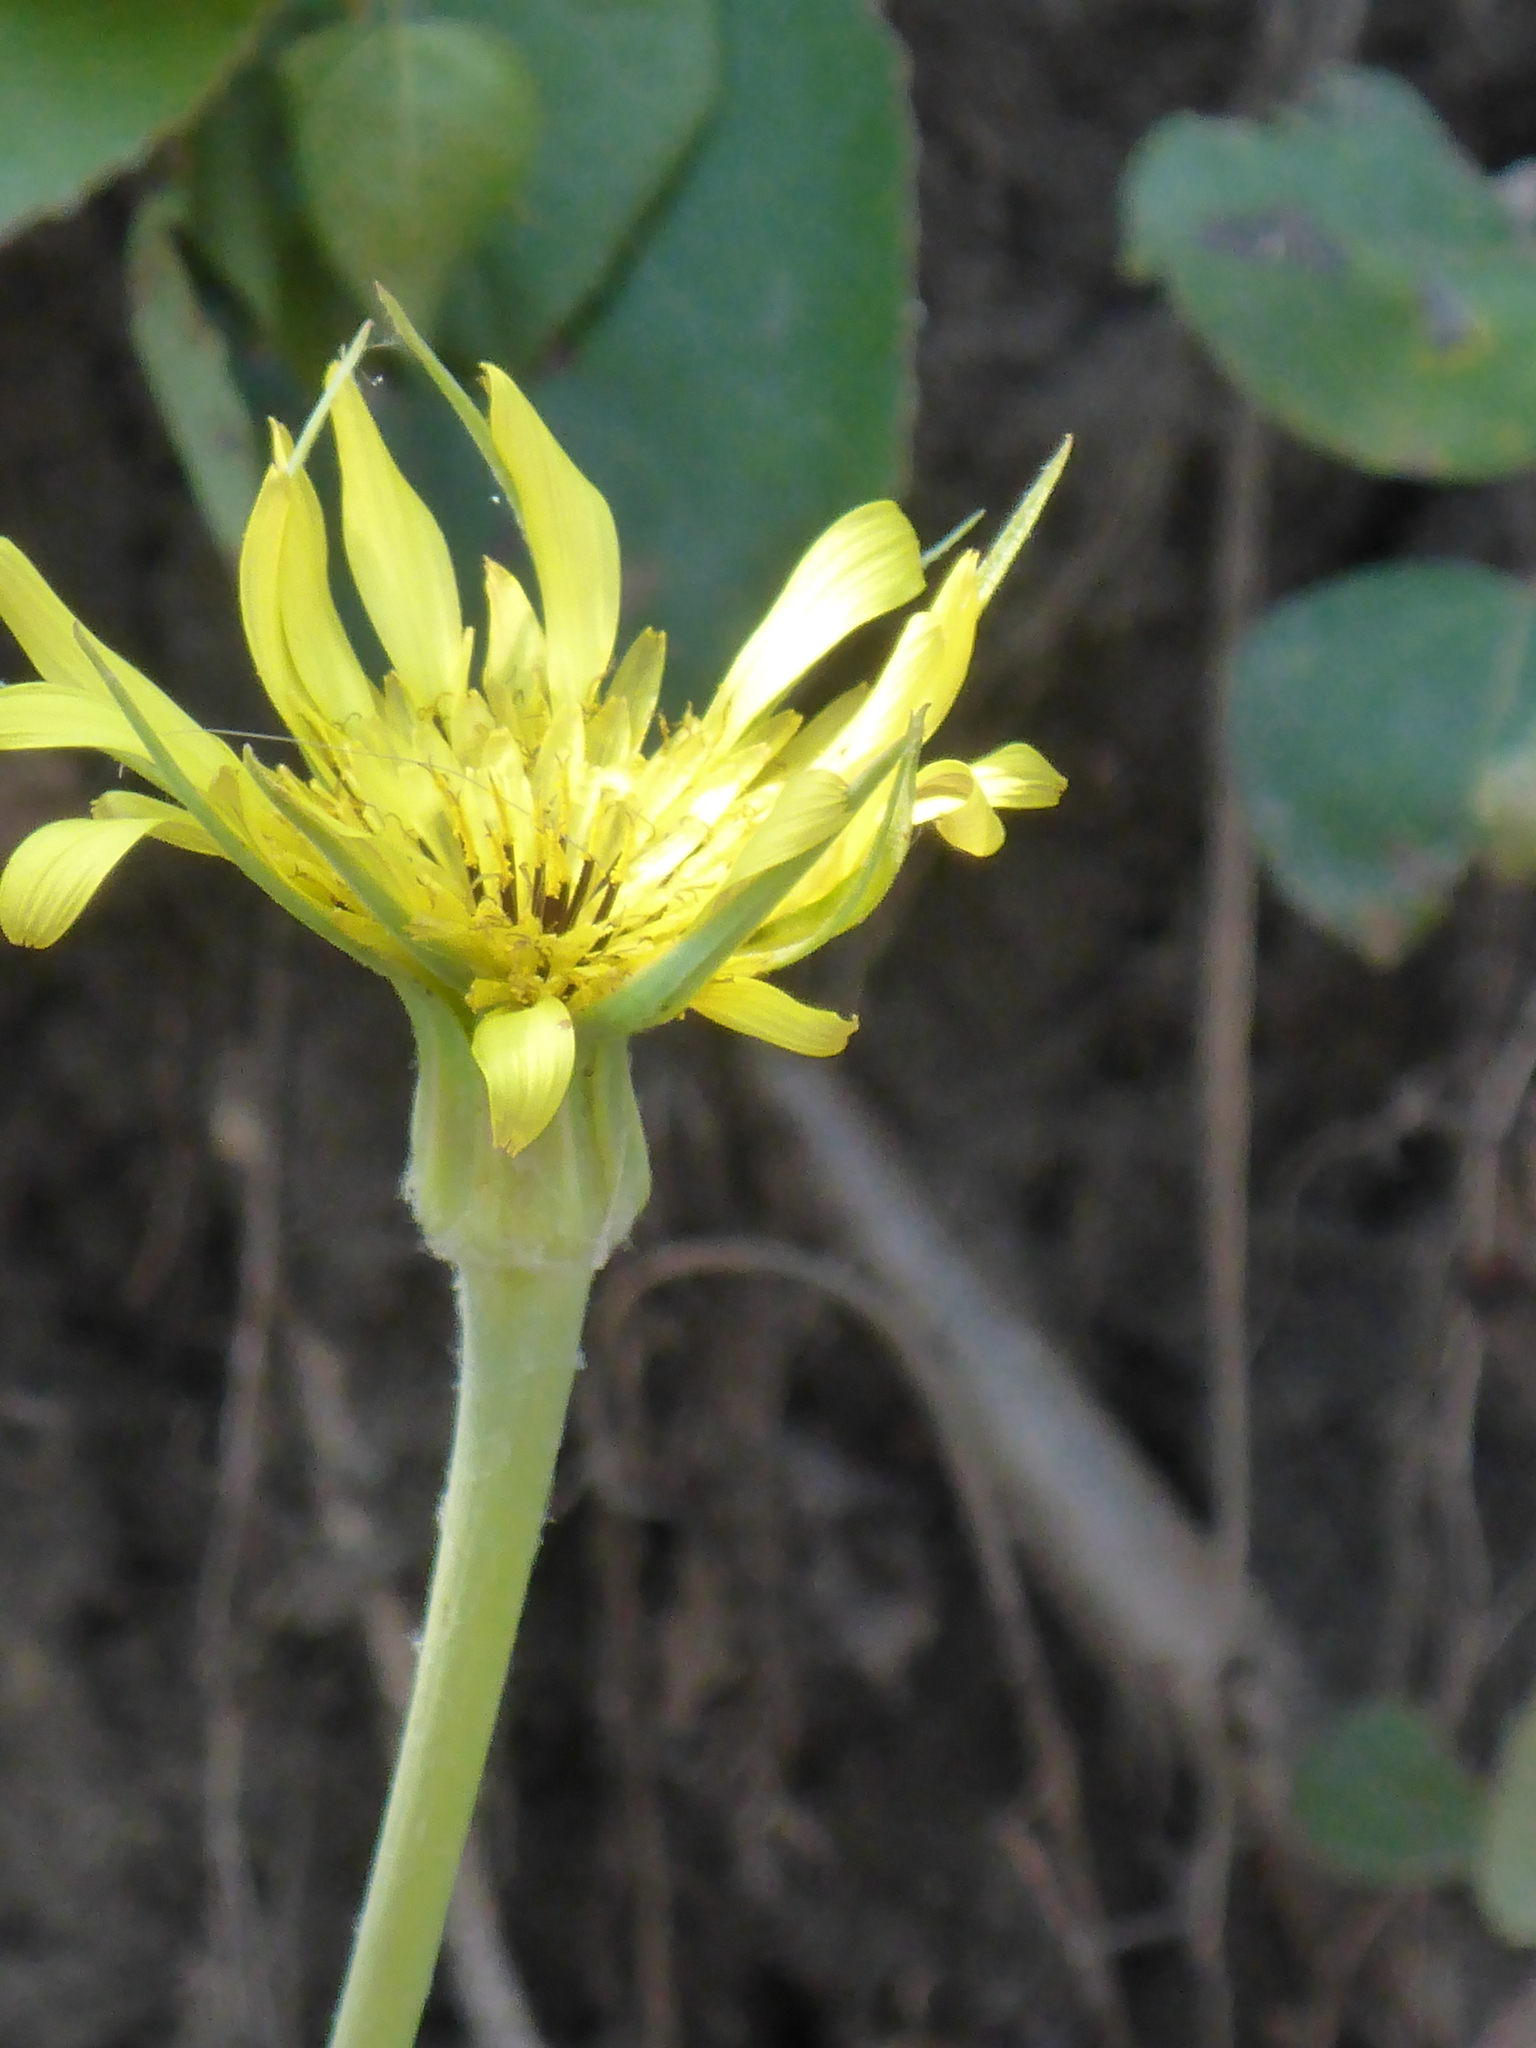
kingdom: Plantae
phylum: Tracheophyta
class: Magnoliopsida
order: Asterales
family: Asteraceae
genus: Tragopogon
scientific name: Tragopogon dubius
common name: Yellow salsify
